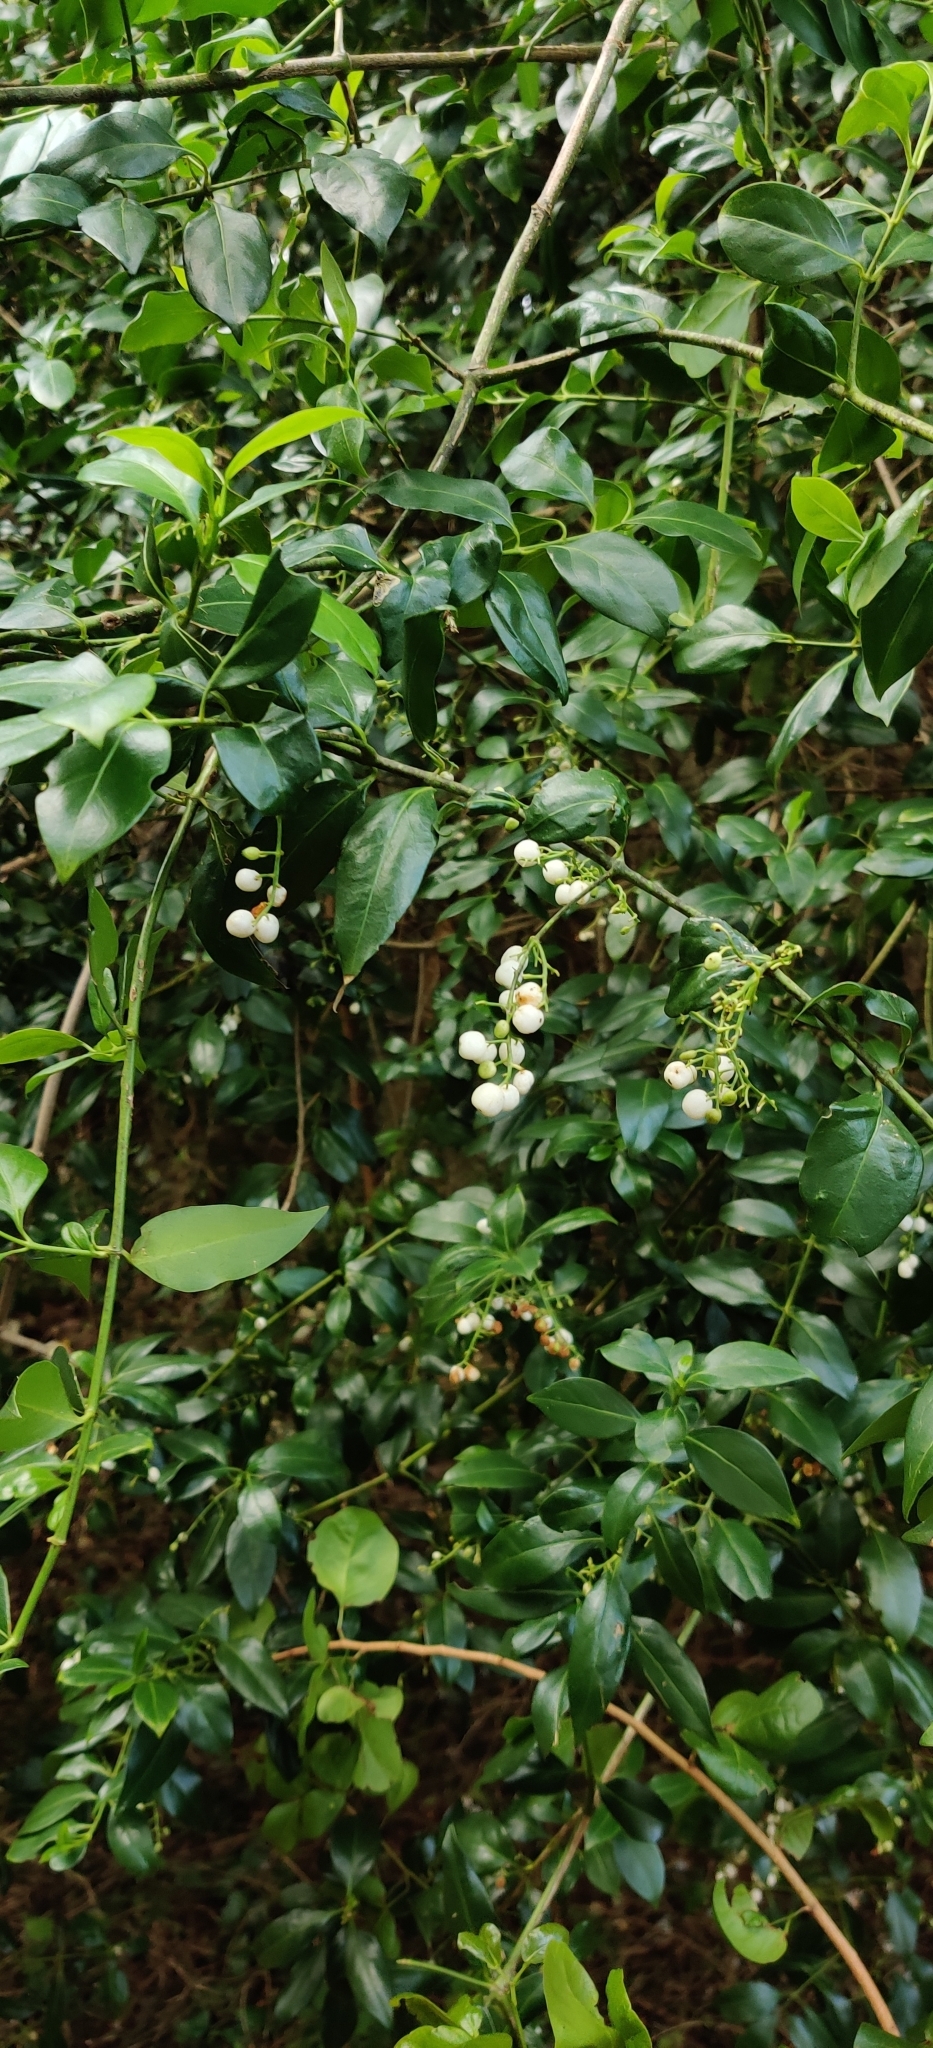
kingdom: Plantae
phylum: Tracheophyta
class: Magnoliopsida
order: Gentianales
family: Rubiaceae
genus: Chiococca
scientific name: Chiococca alba
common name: Snowberry
